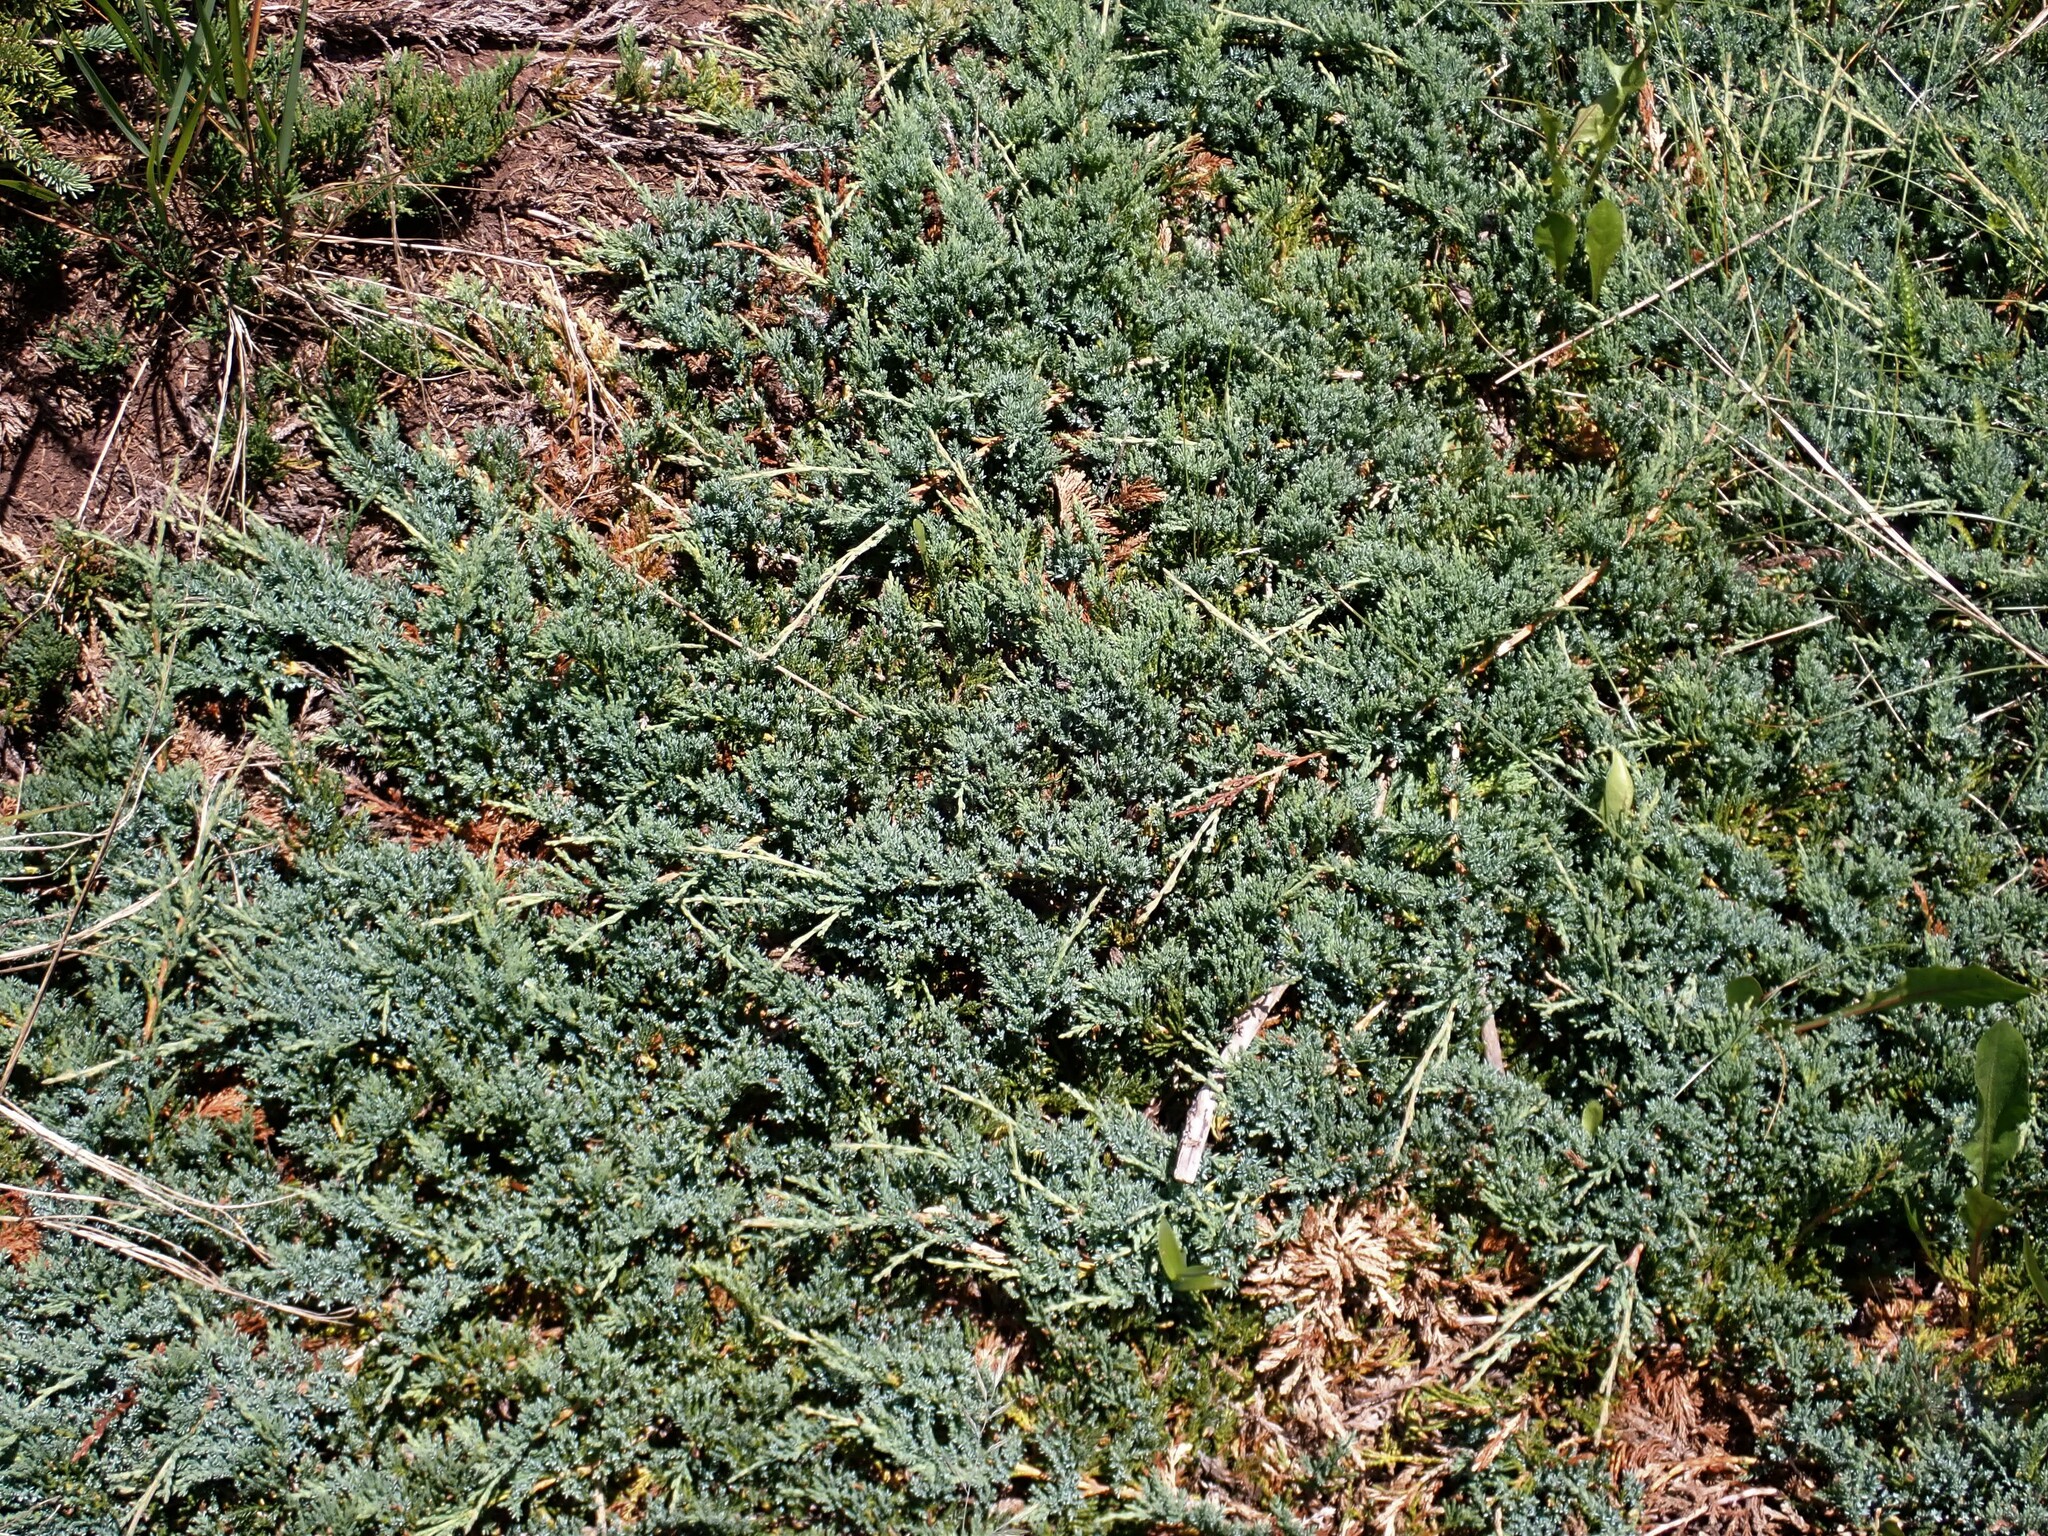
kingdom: Plantae
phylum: Tracheophyta
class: Pinopsida
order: Pinales
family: Cupressaceae
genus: Juniperus
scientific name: Juniperus horizontalis
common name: Creeping juniper
